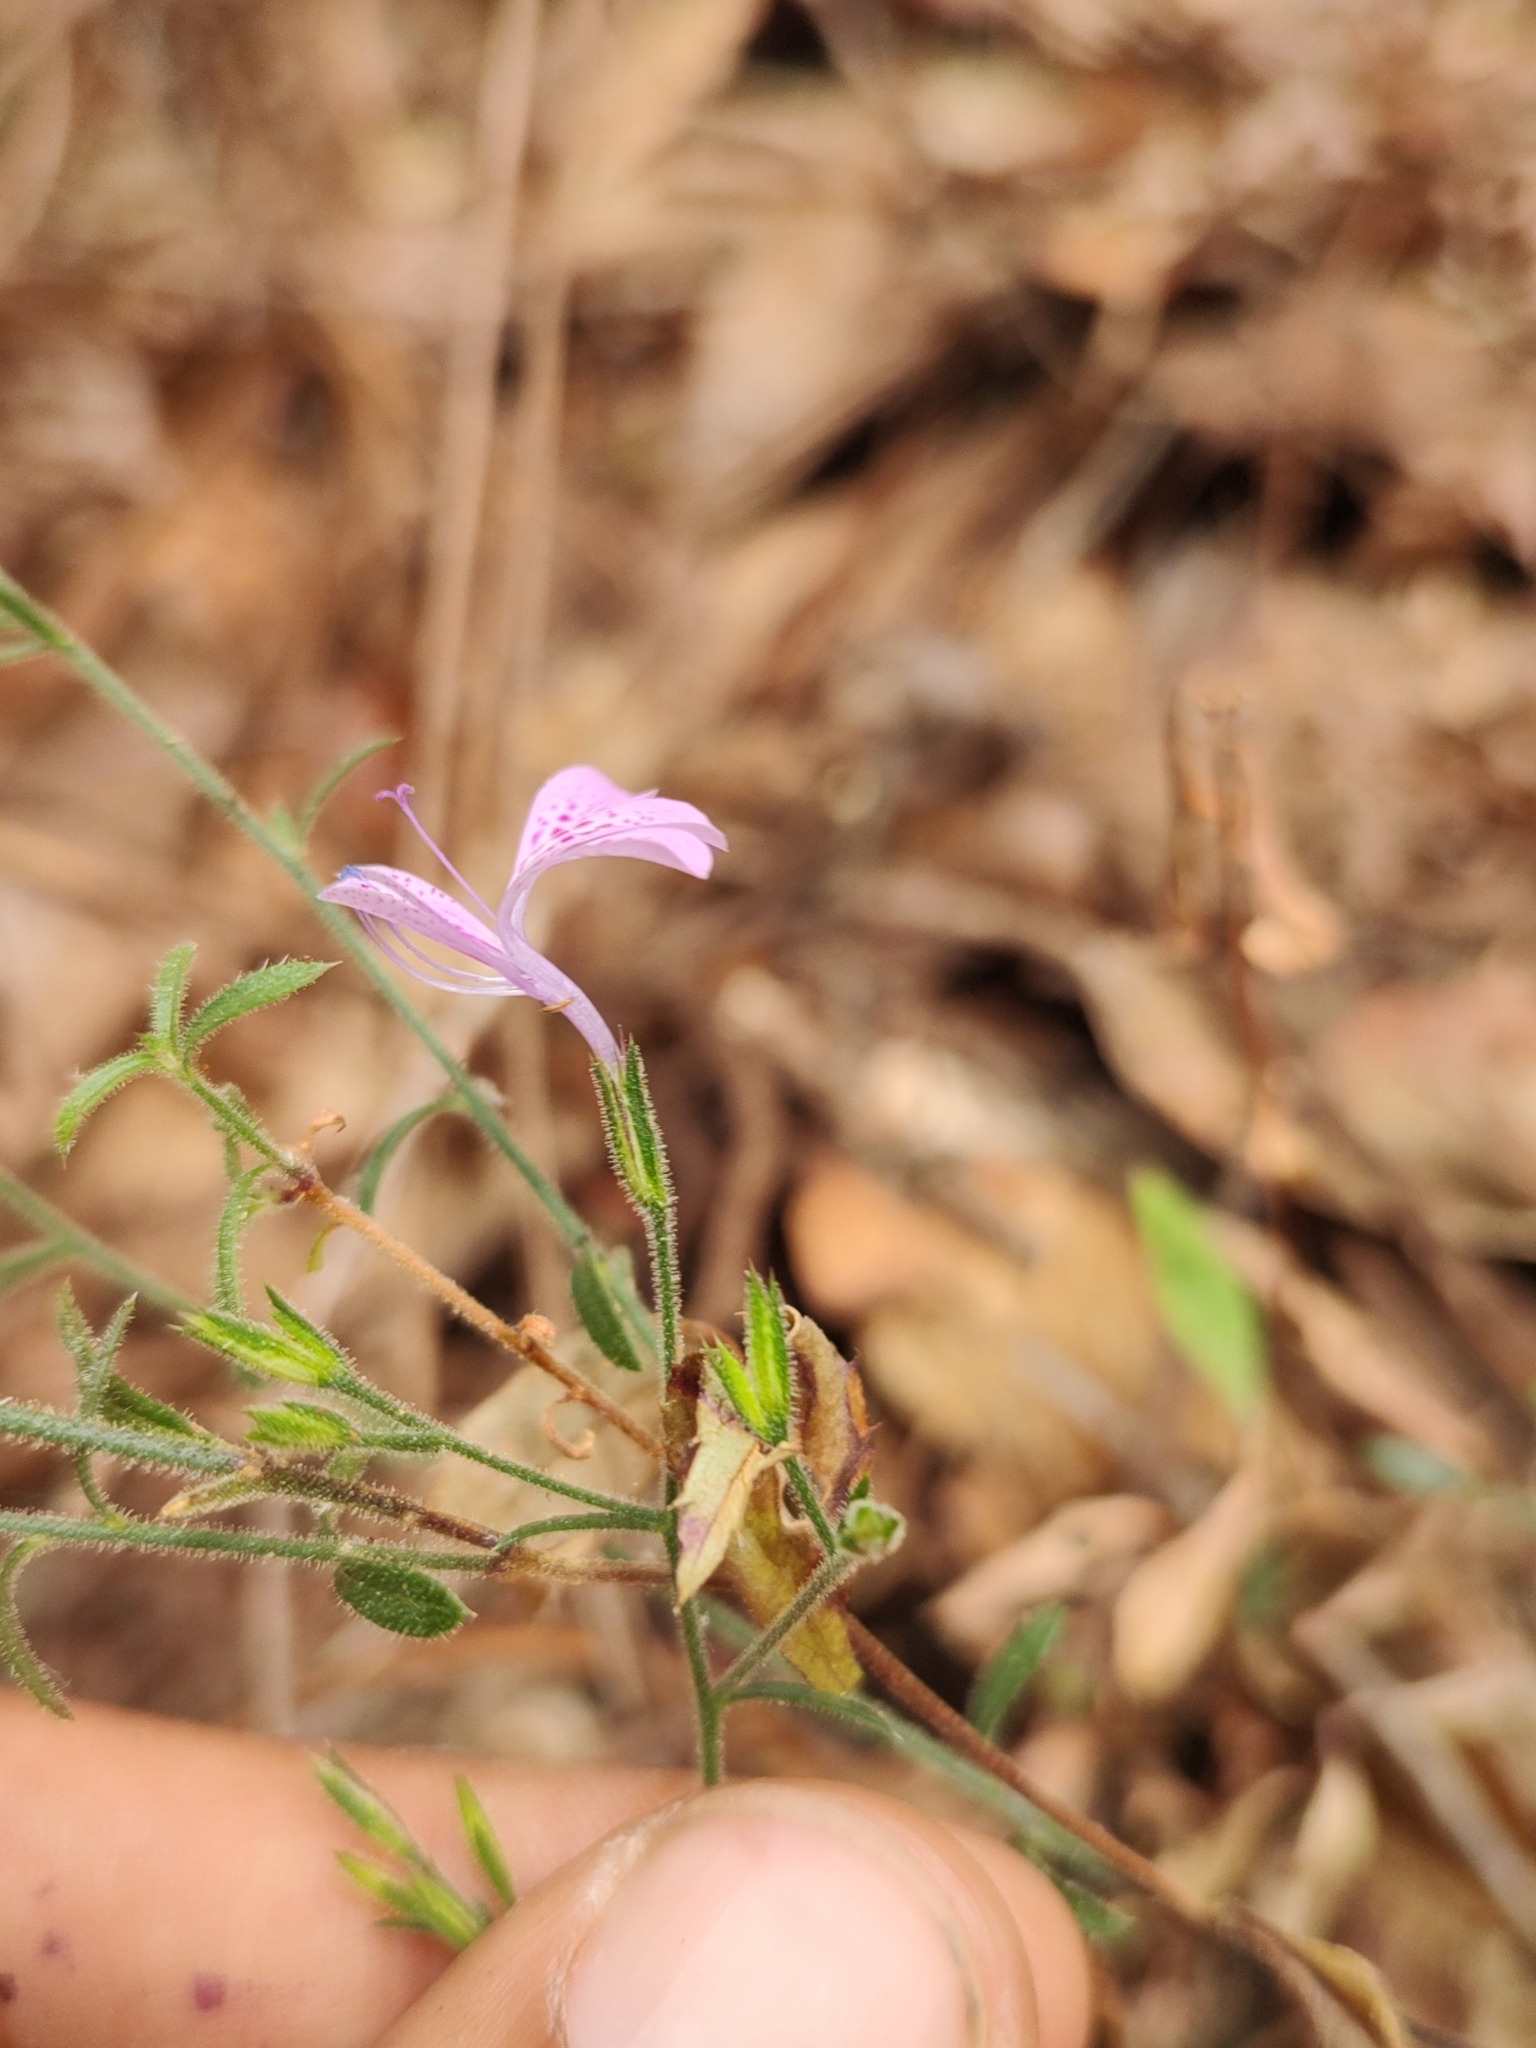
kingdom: Plantae
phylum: Tracheophyta
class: Magnoliopsida
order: Ericales
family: Polemoniaceae
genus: Loeselia
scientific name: Loeselia glandulosa
